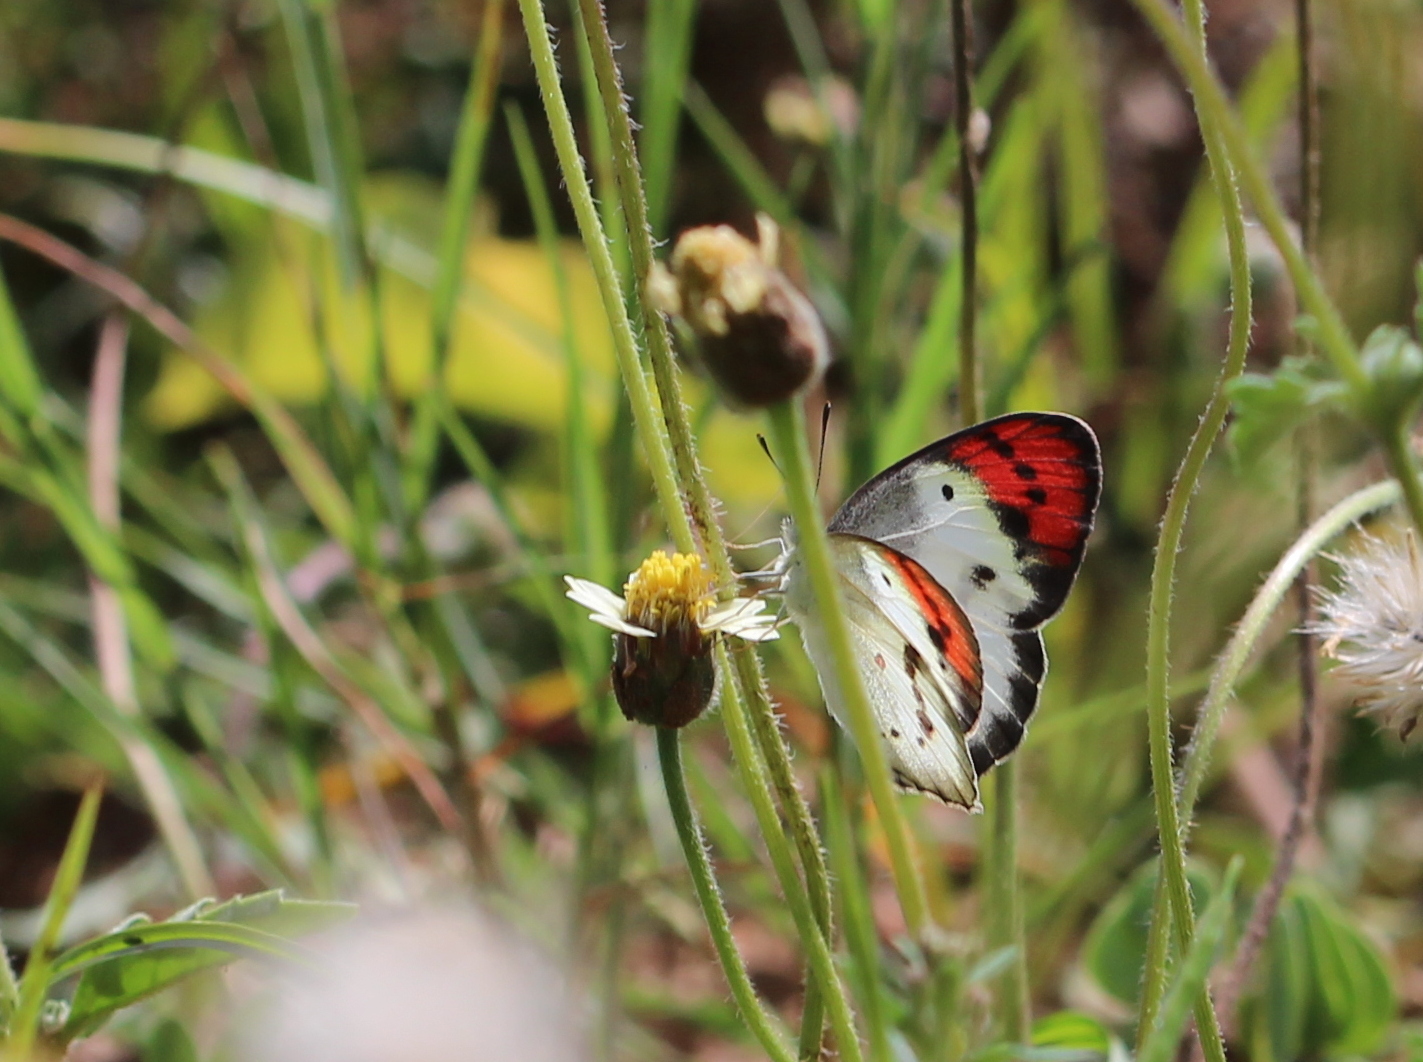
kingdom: Animalia
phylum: Arthropoda
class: Insecta
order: Lepidoptera
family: Pieridae
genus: Colotis
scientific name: Colotis danae
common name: Crimson tip
